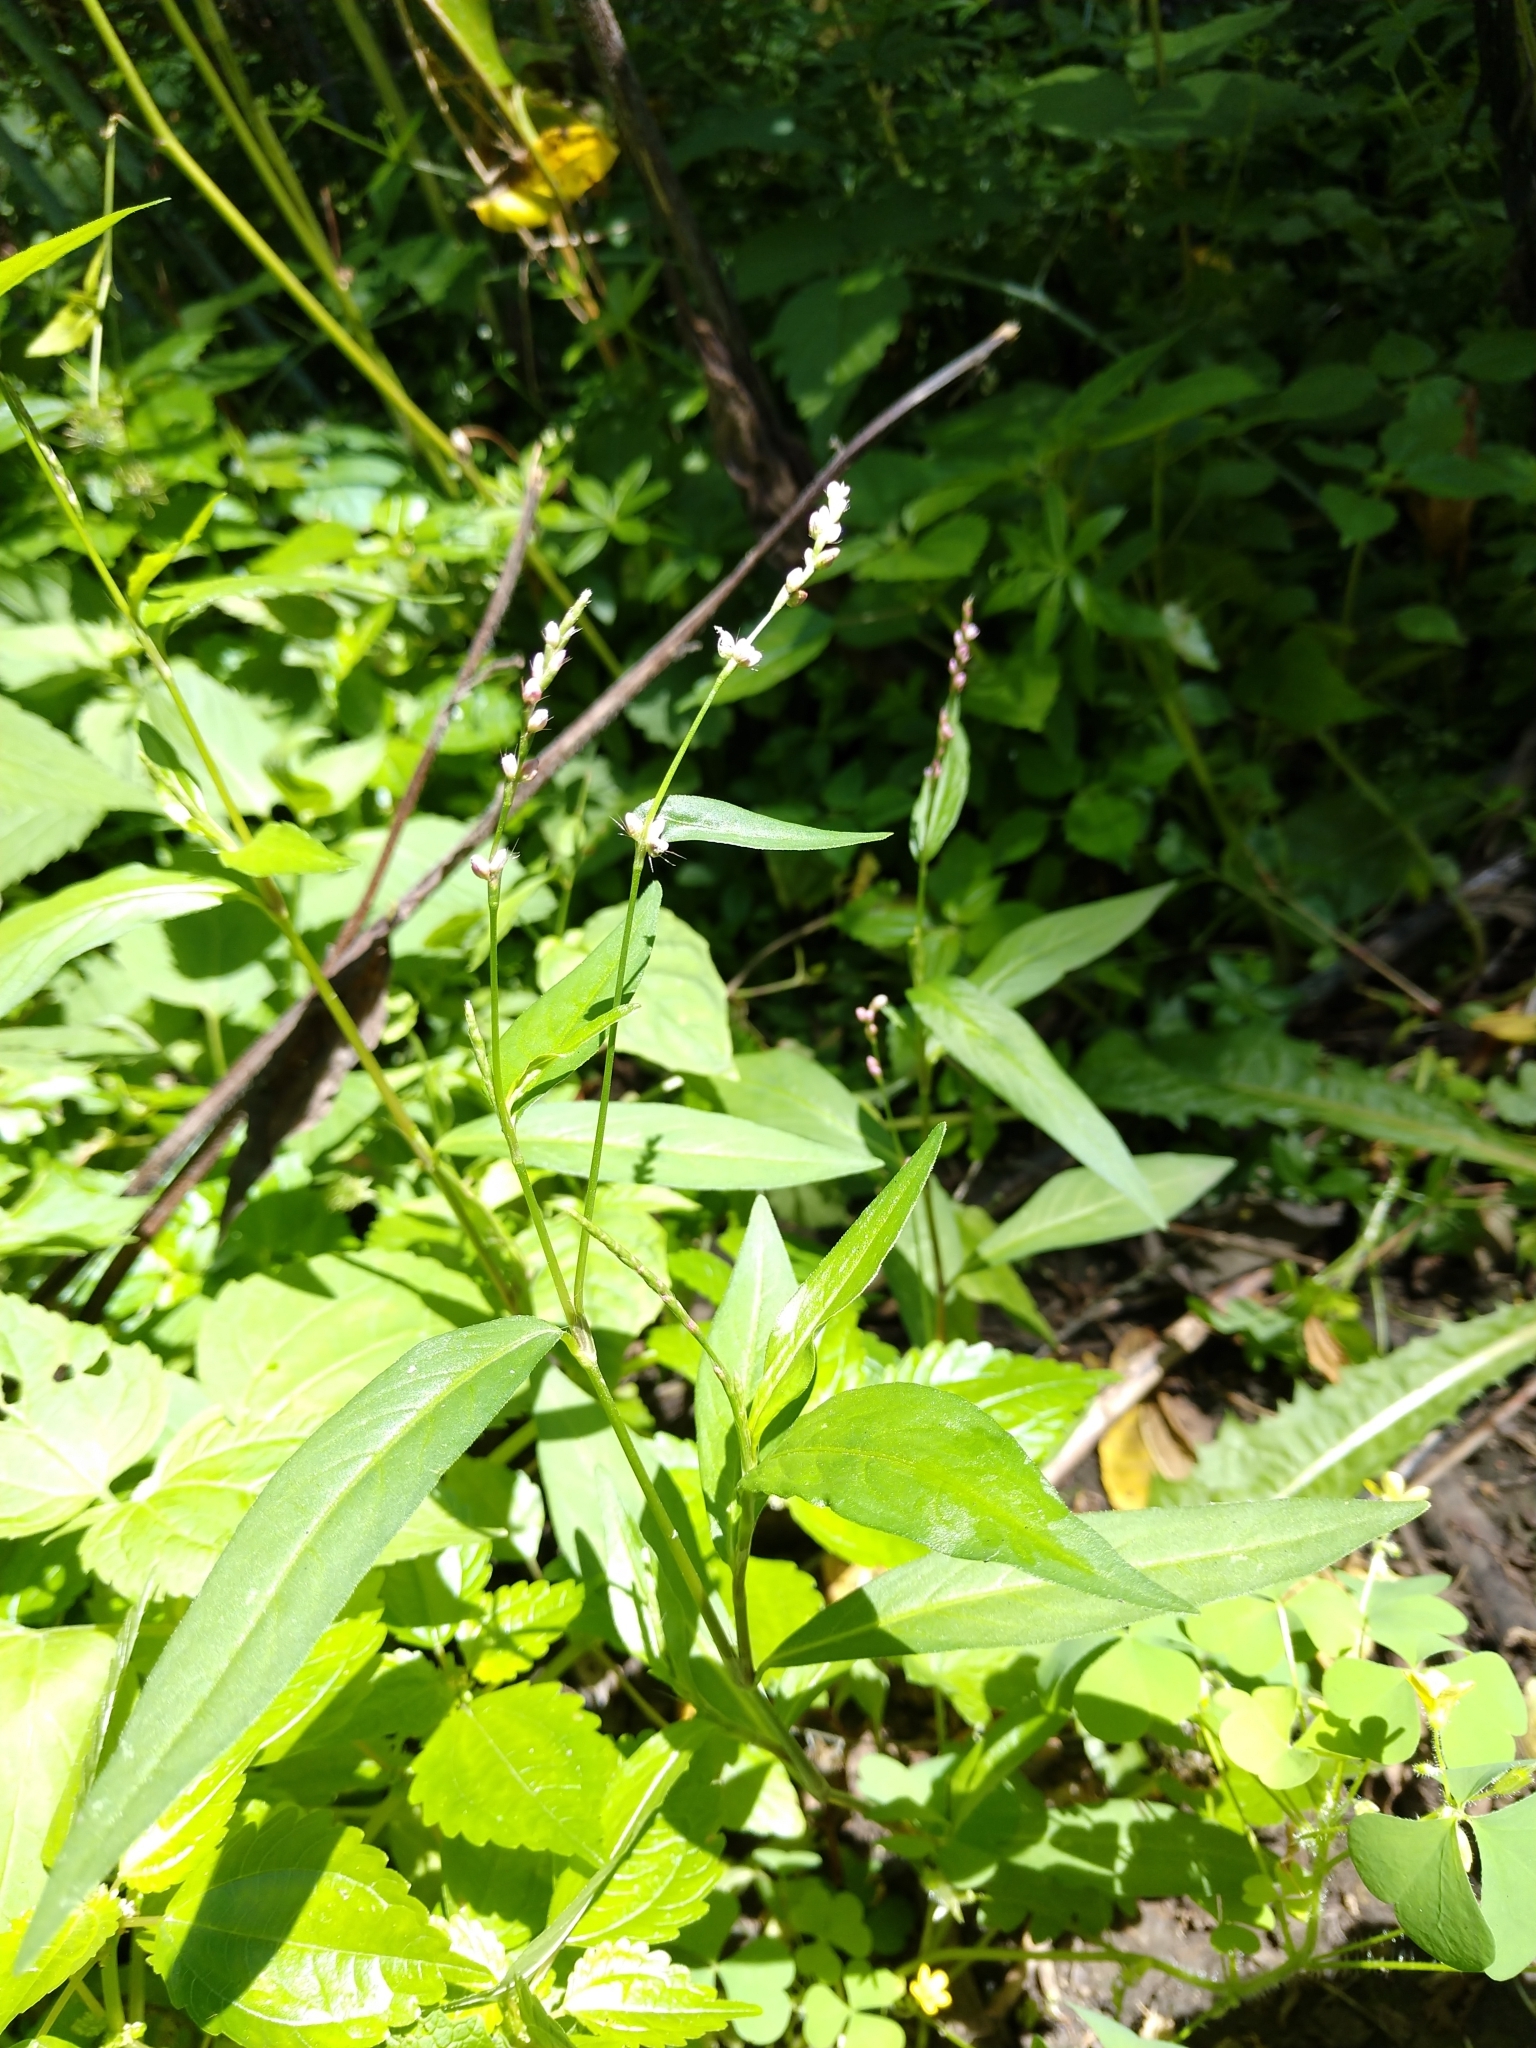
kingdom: Plantae
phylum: Tracheophyta
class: Magnoliopsida
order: Caryophyllales
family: Polygonaceae
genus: Persicaria
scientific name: Persicaria longiseta
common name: Bristly lady's-thumb
